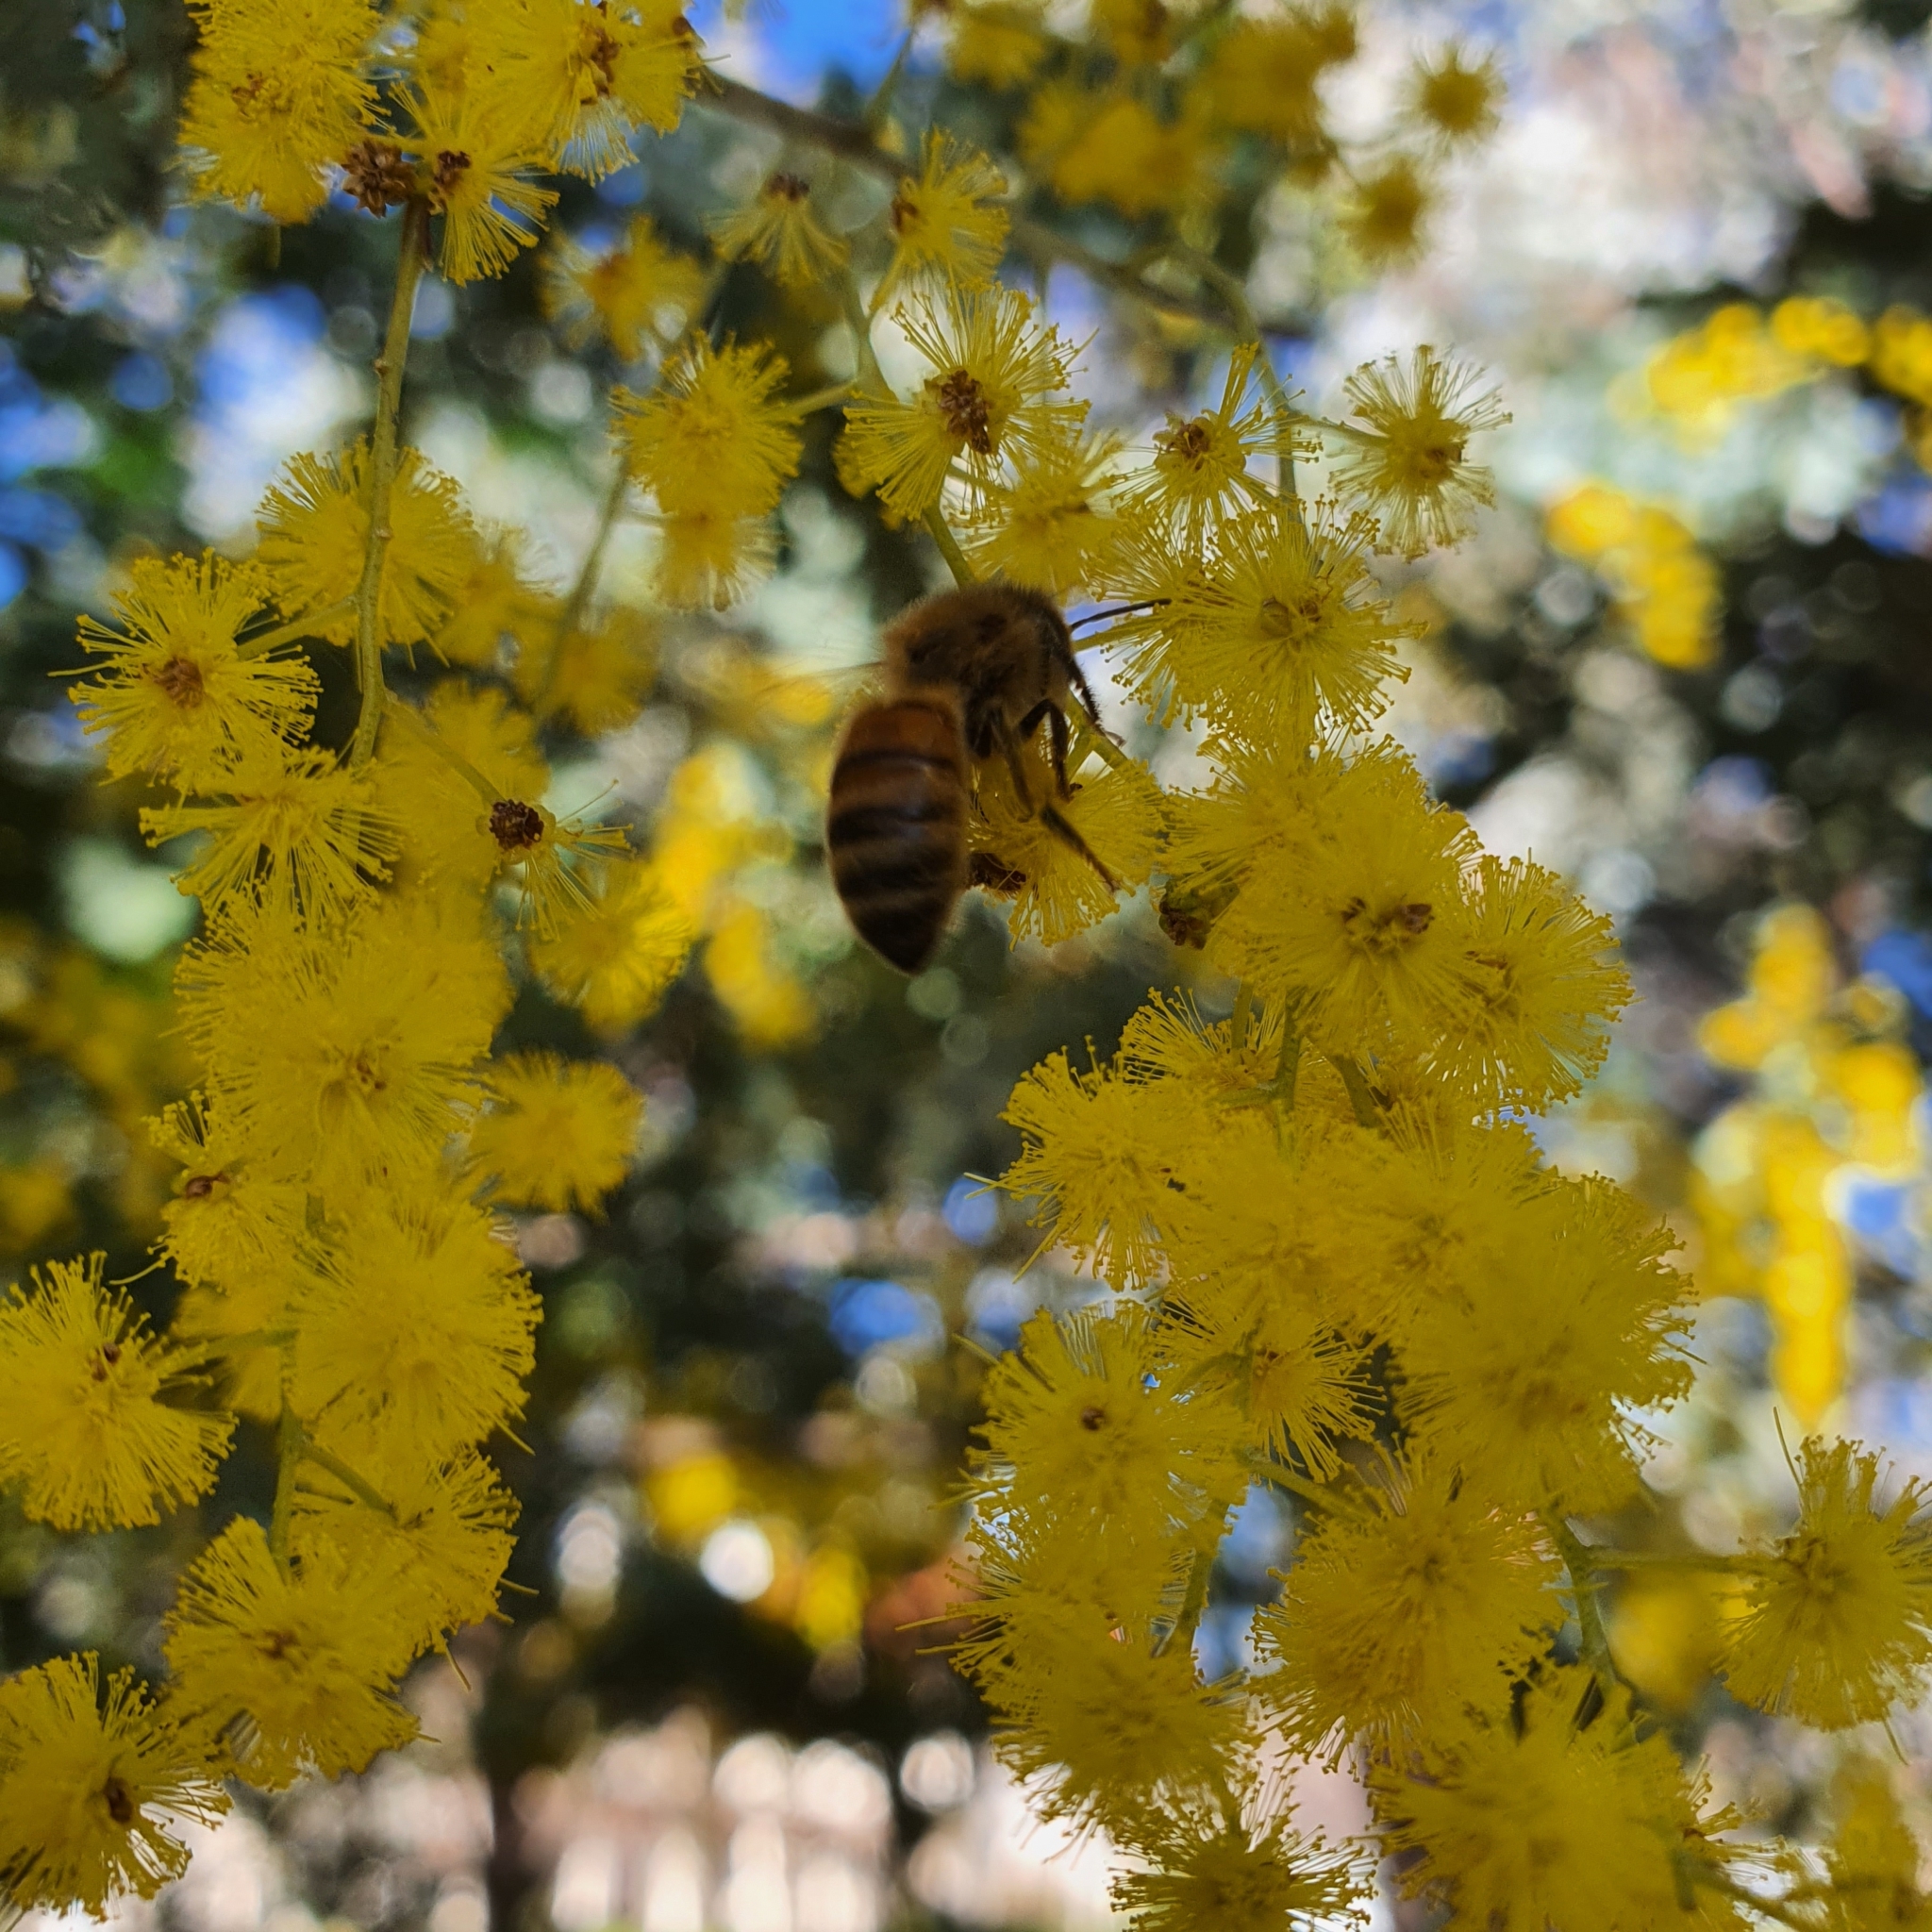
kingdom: Animalia
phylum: Arthropoda
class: Insecta
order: Hymenoptera
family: Apidae
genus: Apis
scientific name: Apis mellifera
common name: Honey bee
